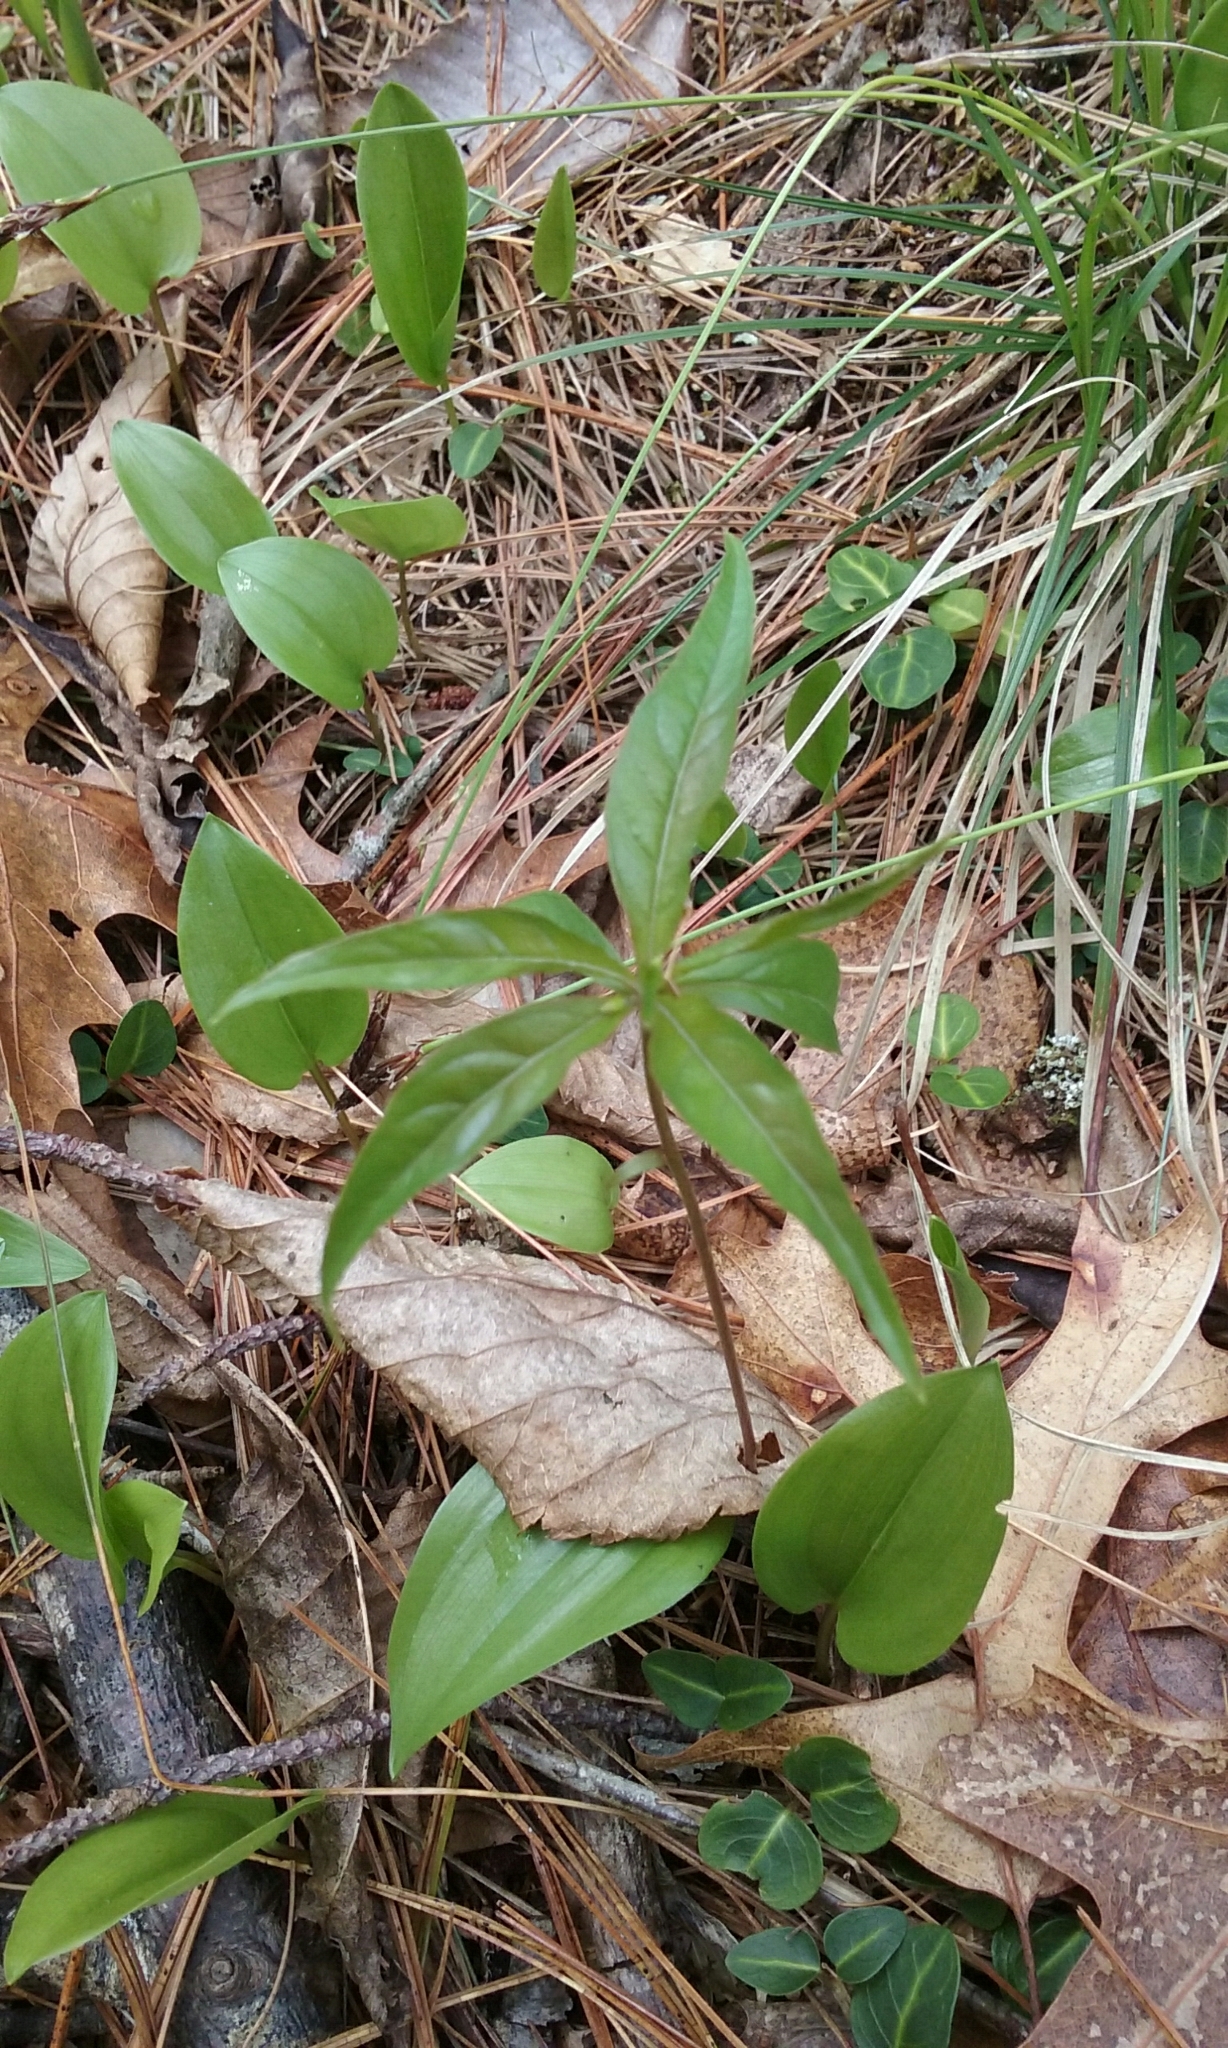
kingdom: Plantae
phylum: Tracheophyta
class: Magnoliopsida
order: Ericales
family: Primulaceae
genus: Lysimachia
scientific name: Lysimachia borealis
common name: American starflower
